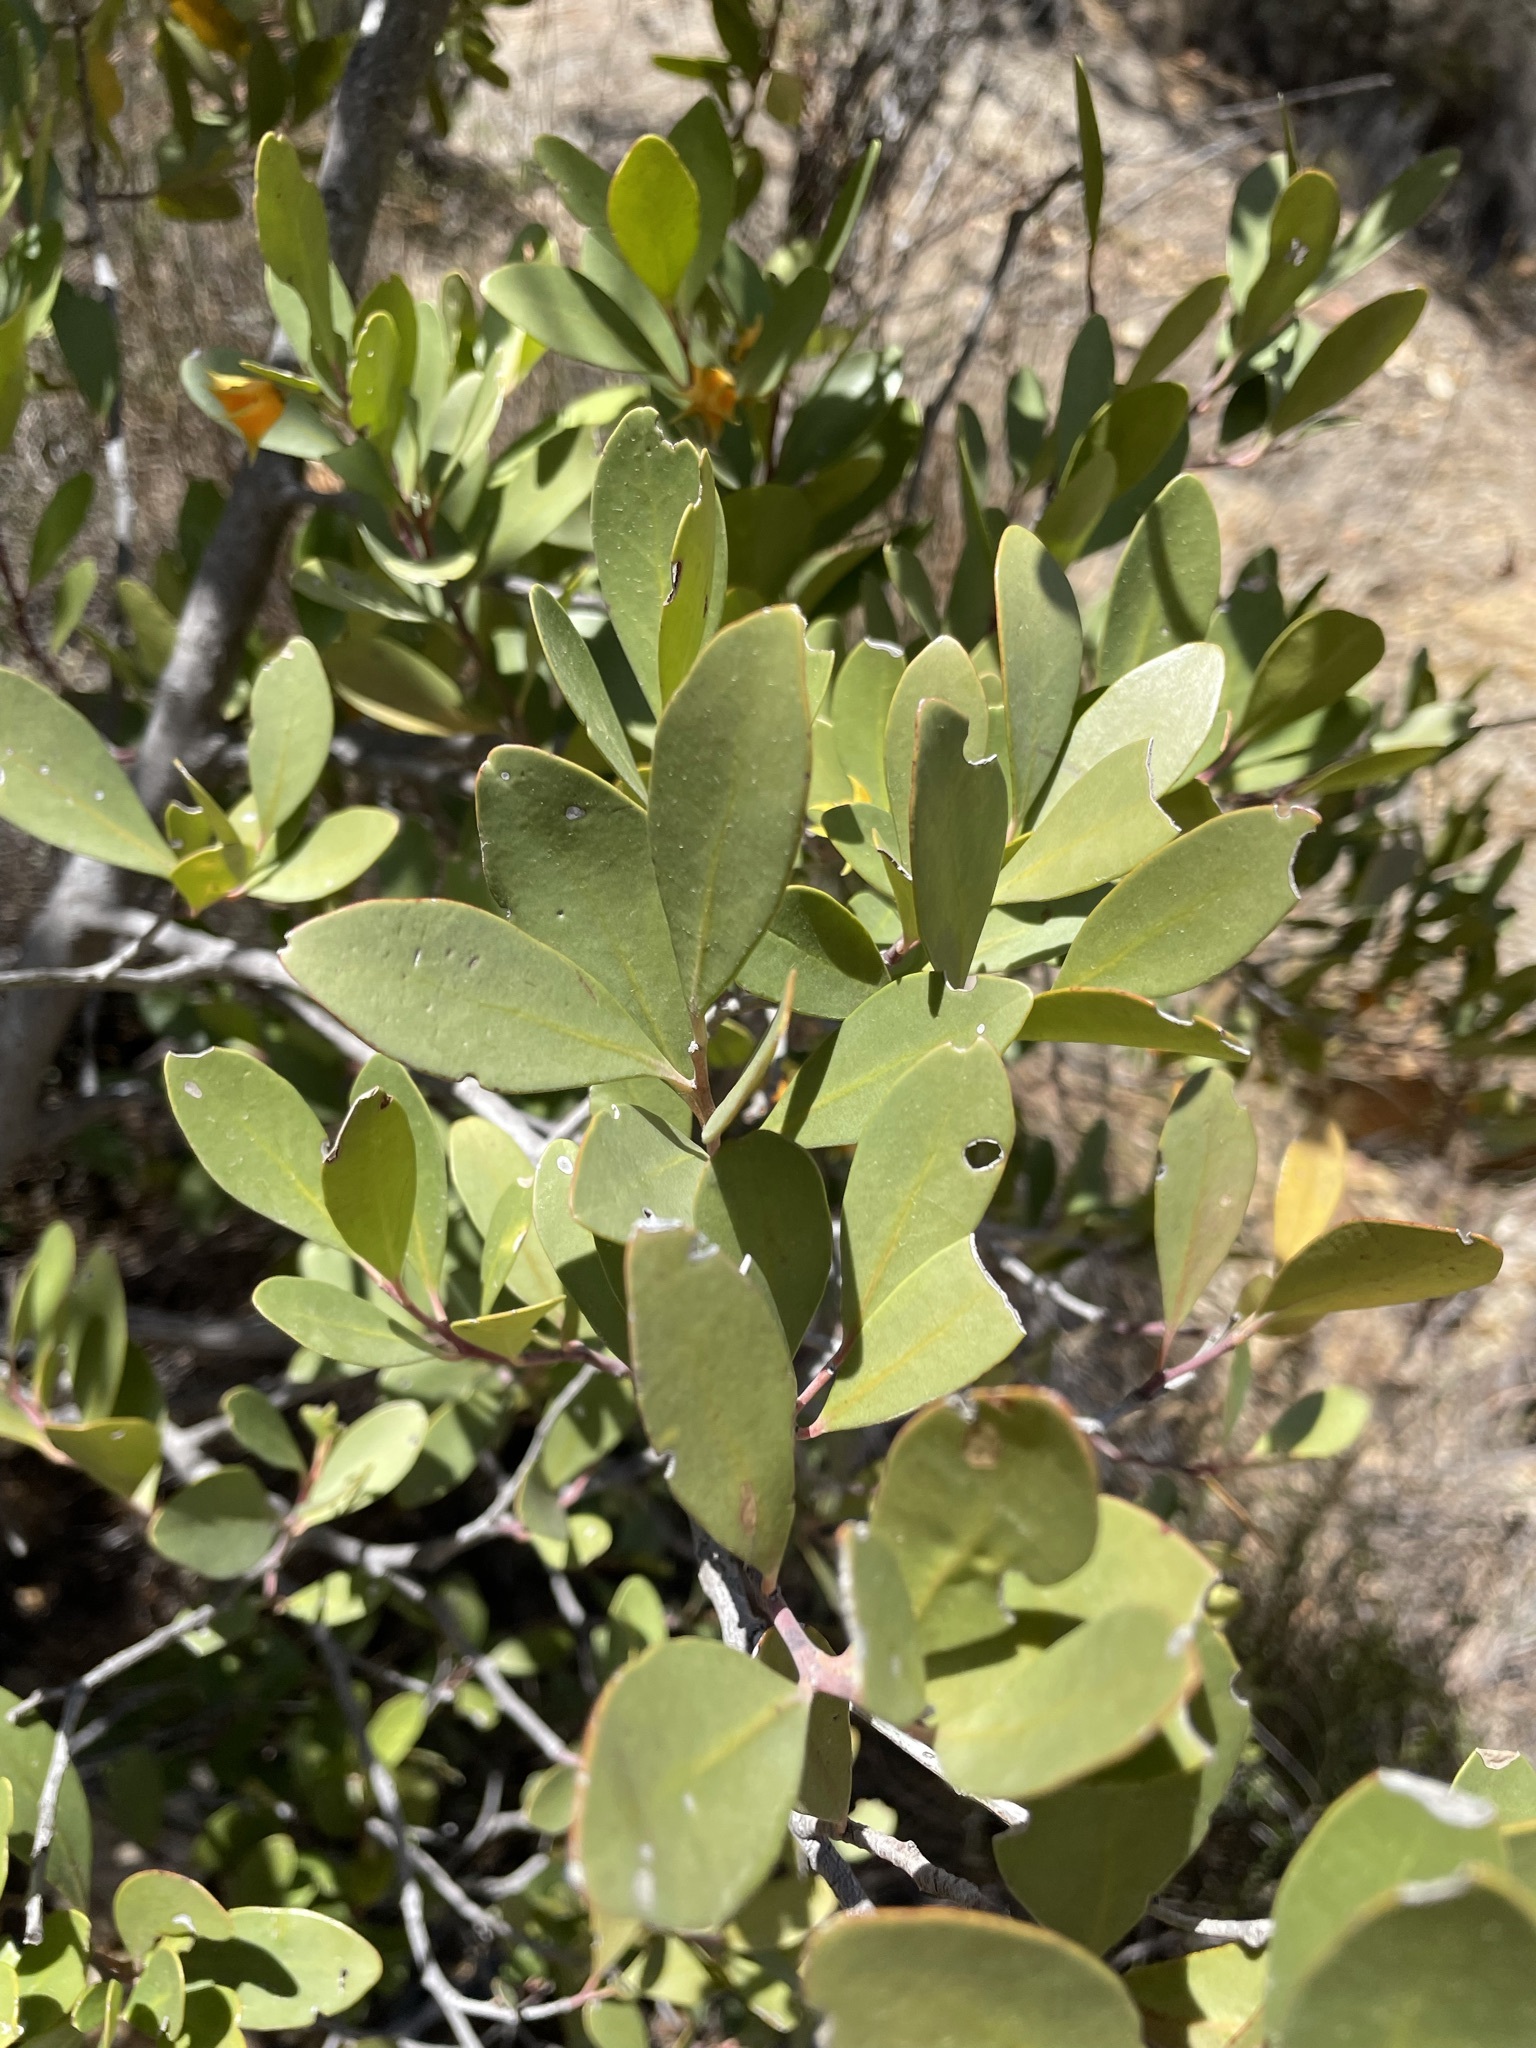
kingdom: Plantae
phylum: Tracheophyta
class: Magnoliopsida
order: Celastrales
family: Celastraceae
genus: Pterocelastrus
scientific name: Pterocelastrus tricuspidatus
